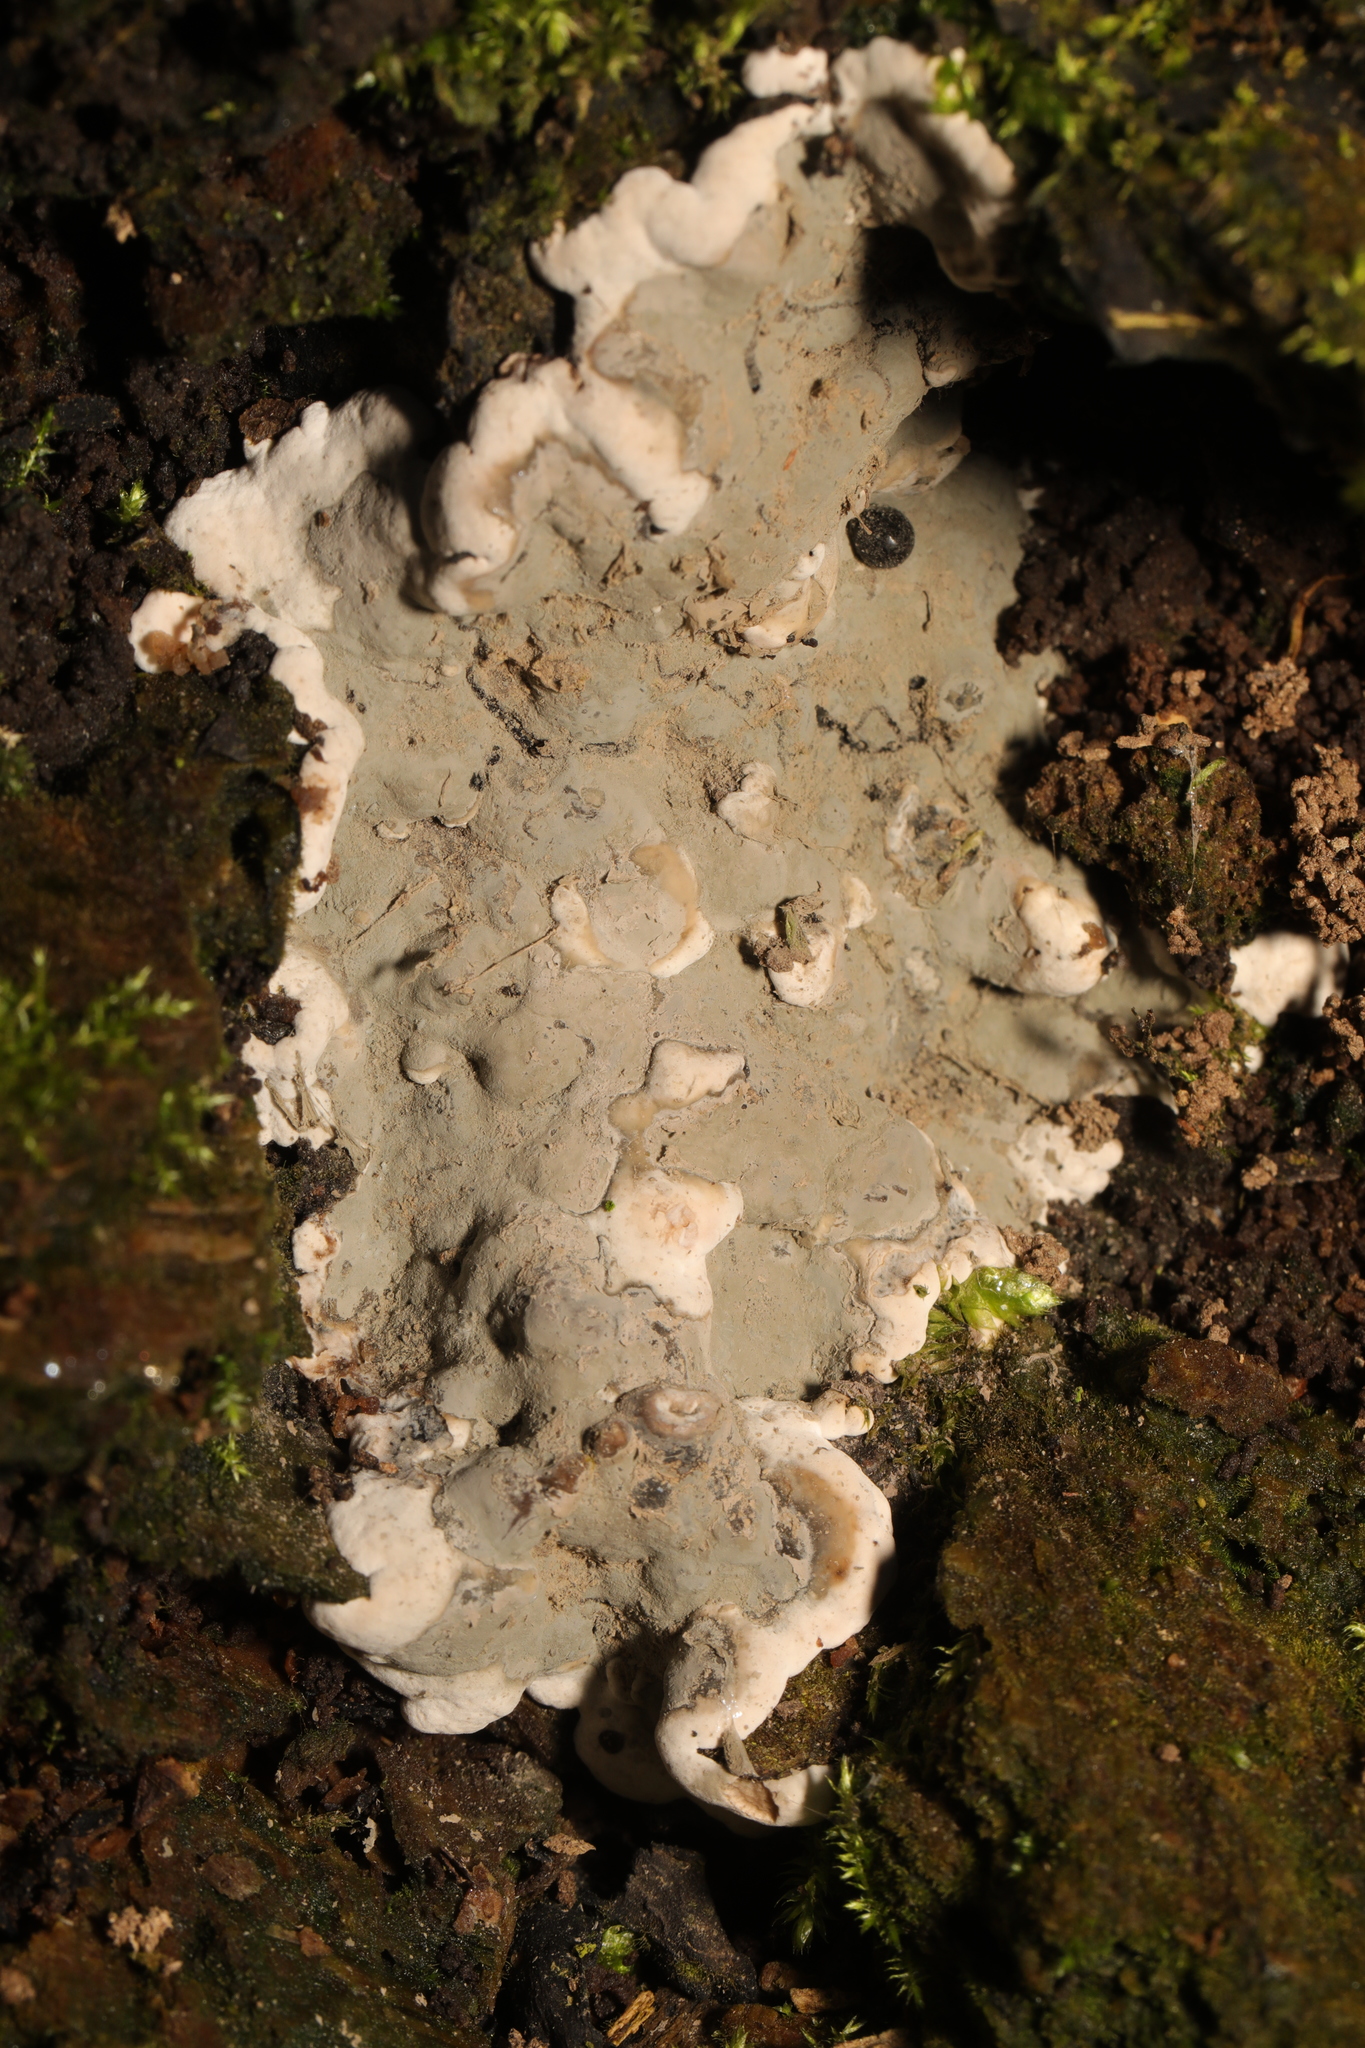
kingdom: Fungi
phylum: Basidiomycota
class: Agaricomycetes
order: Polyporales
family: Phanerochaetaceae
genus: Bjerkandera
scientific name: Bjerkandera adusta
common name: Smoky bracket
